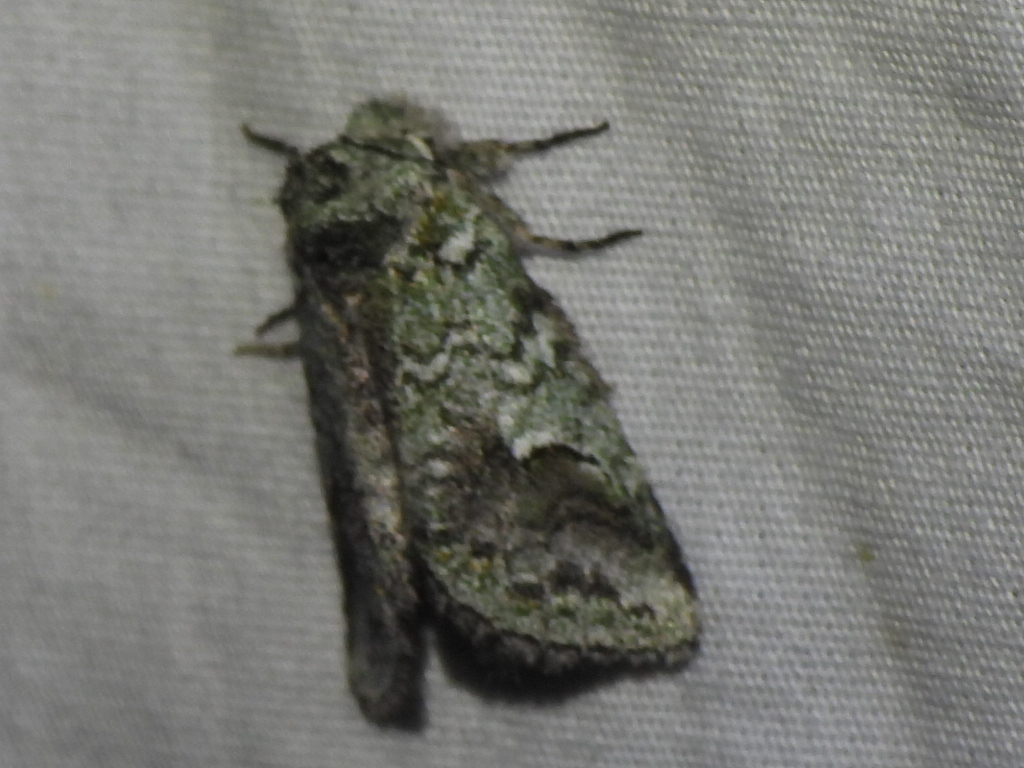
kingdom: Animalia
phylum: Arthropoda
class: Insecta
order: Lepidoptera
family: Notodontidae
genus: Litodonta
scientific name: Litodonta hydromeli
